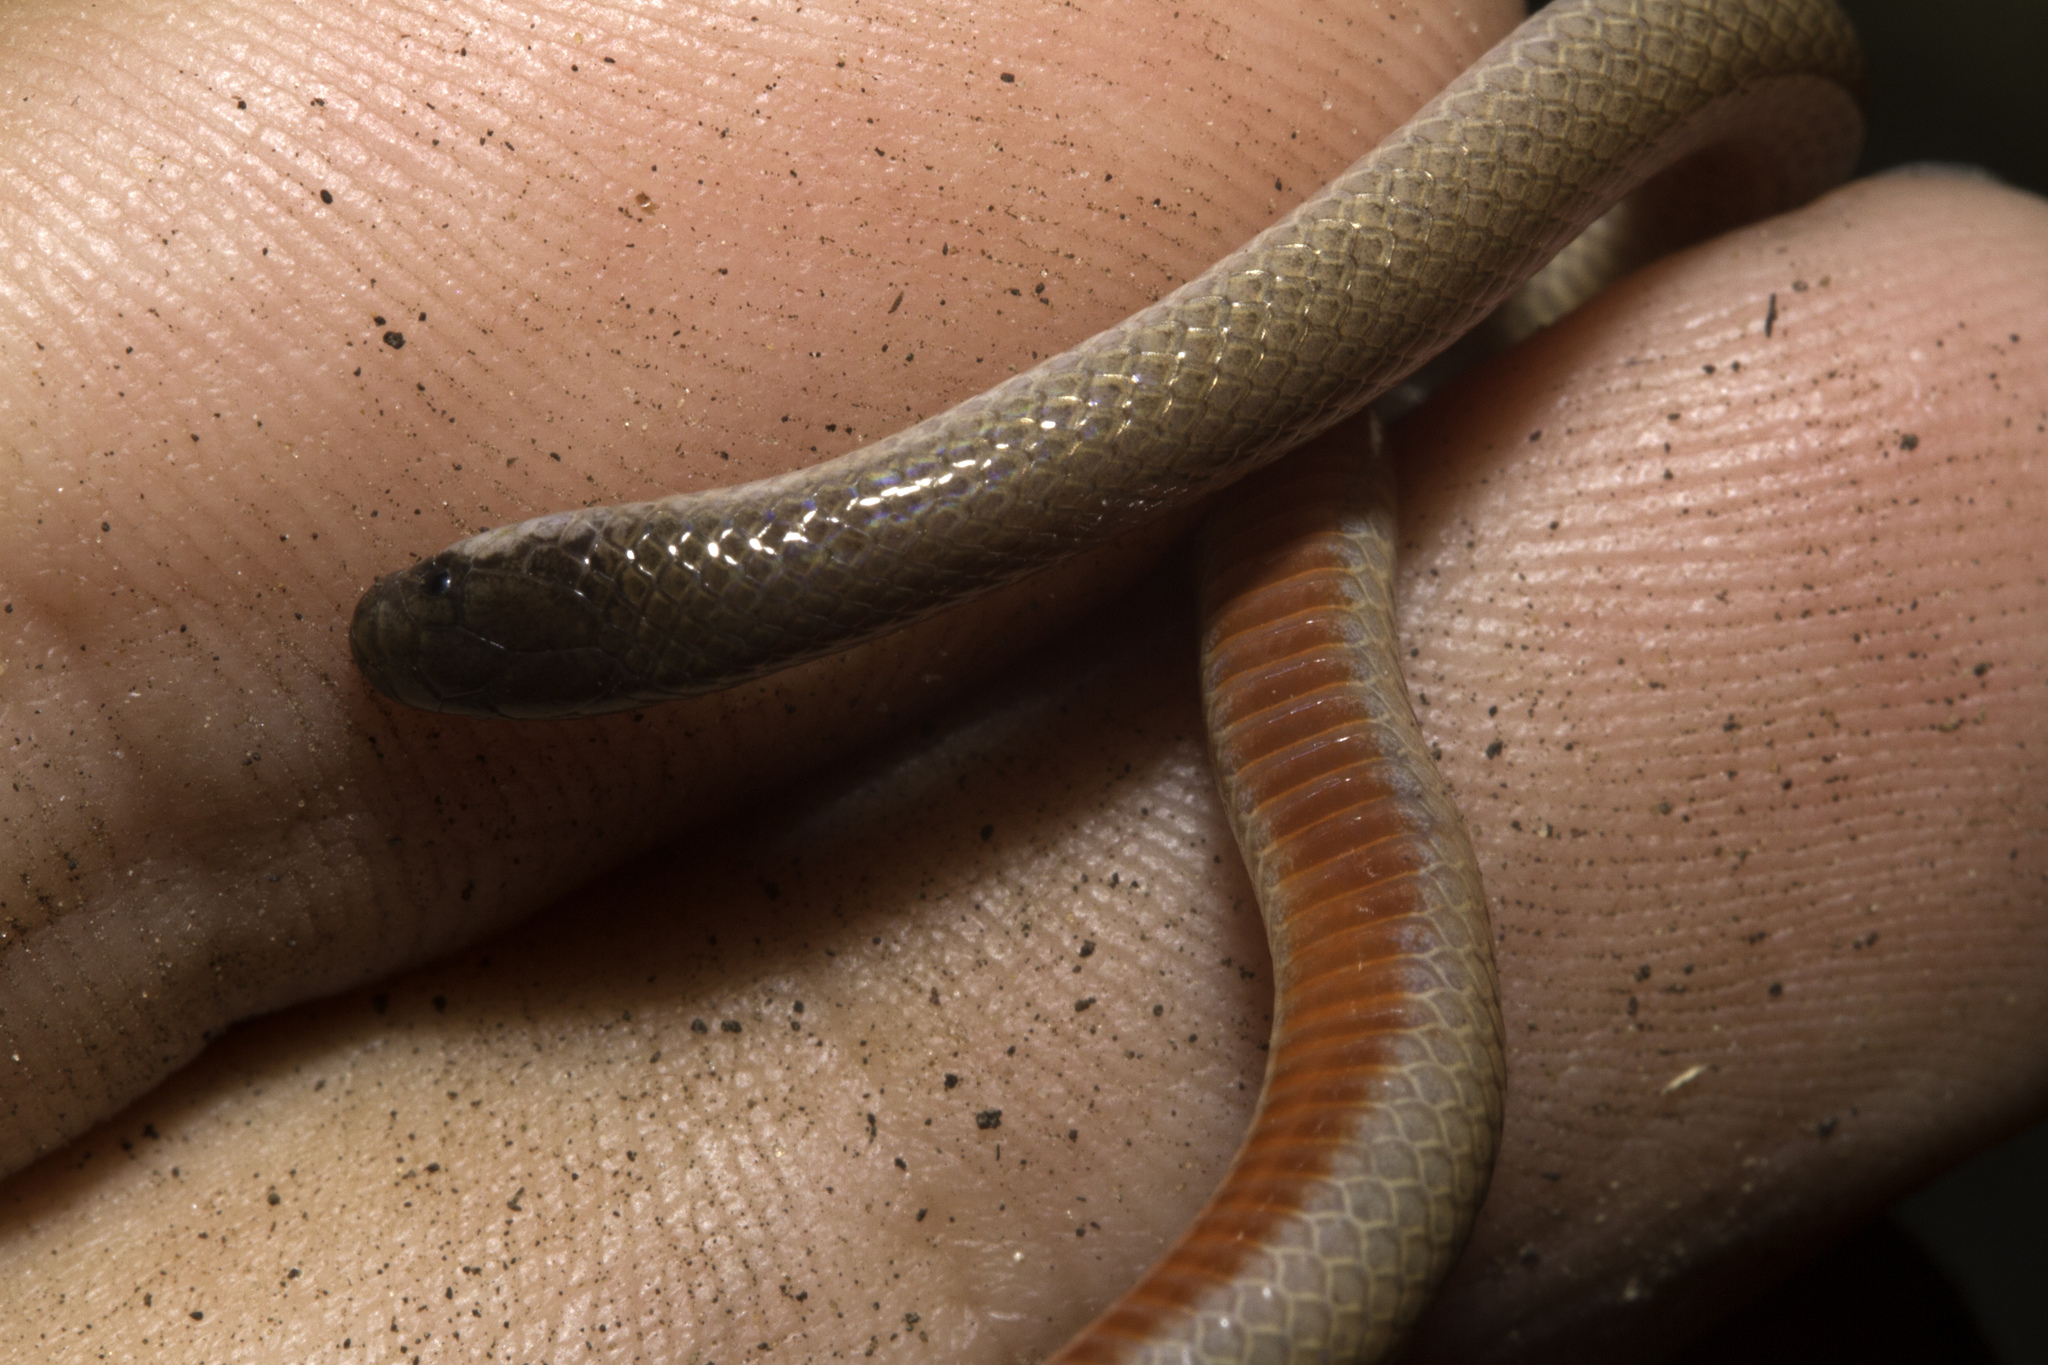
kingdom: Animalia
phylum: Chordata
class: Squamata
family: Colubridae
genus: Tantilla
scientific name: Tantilla gracilis
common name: Flathead snake
